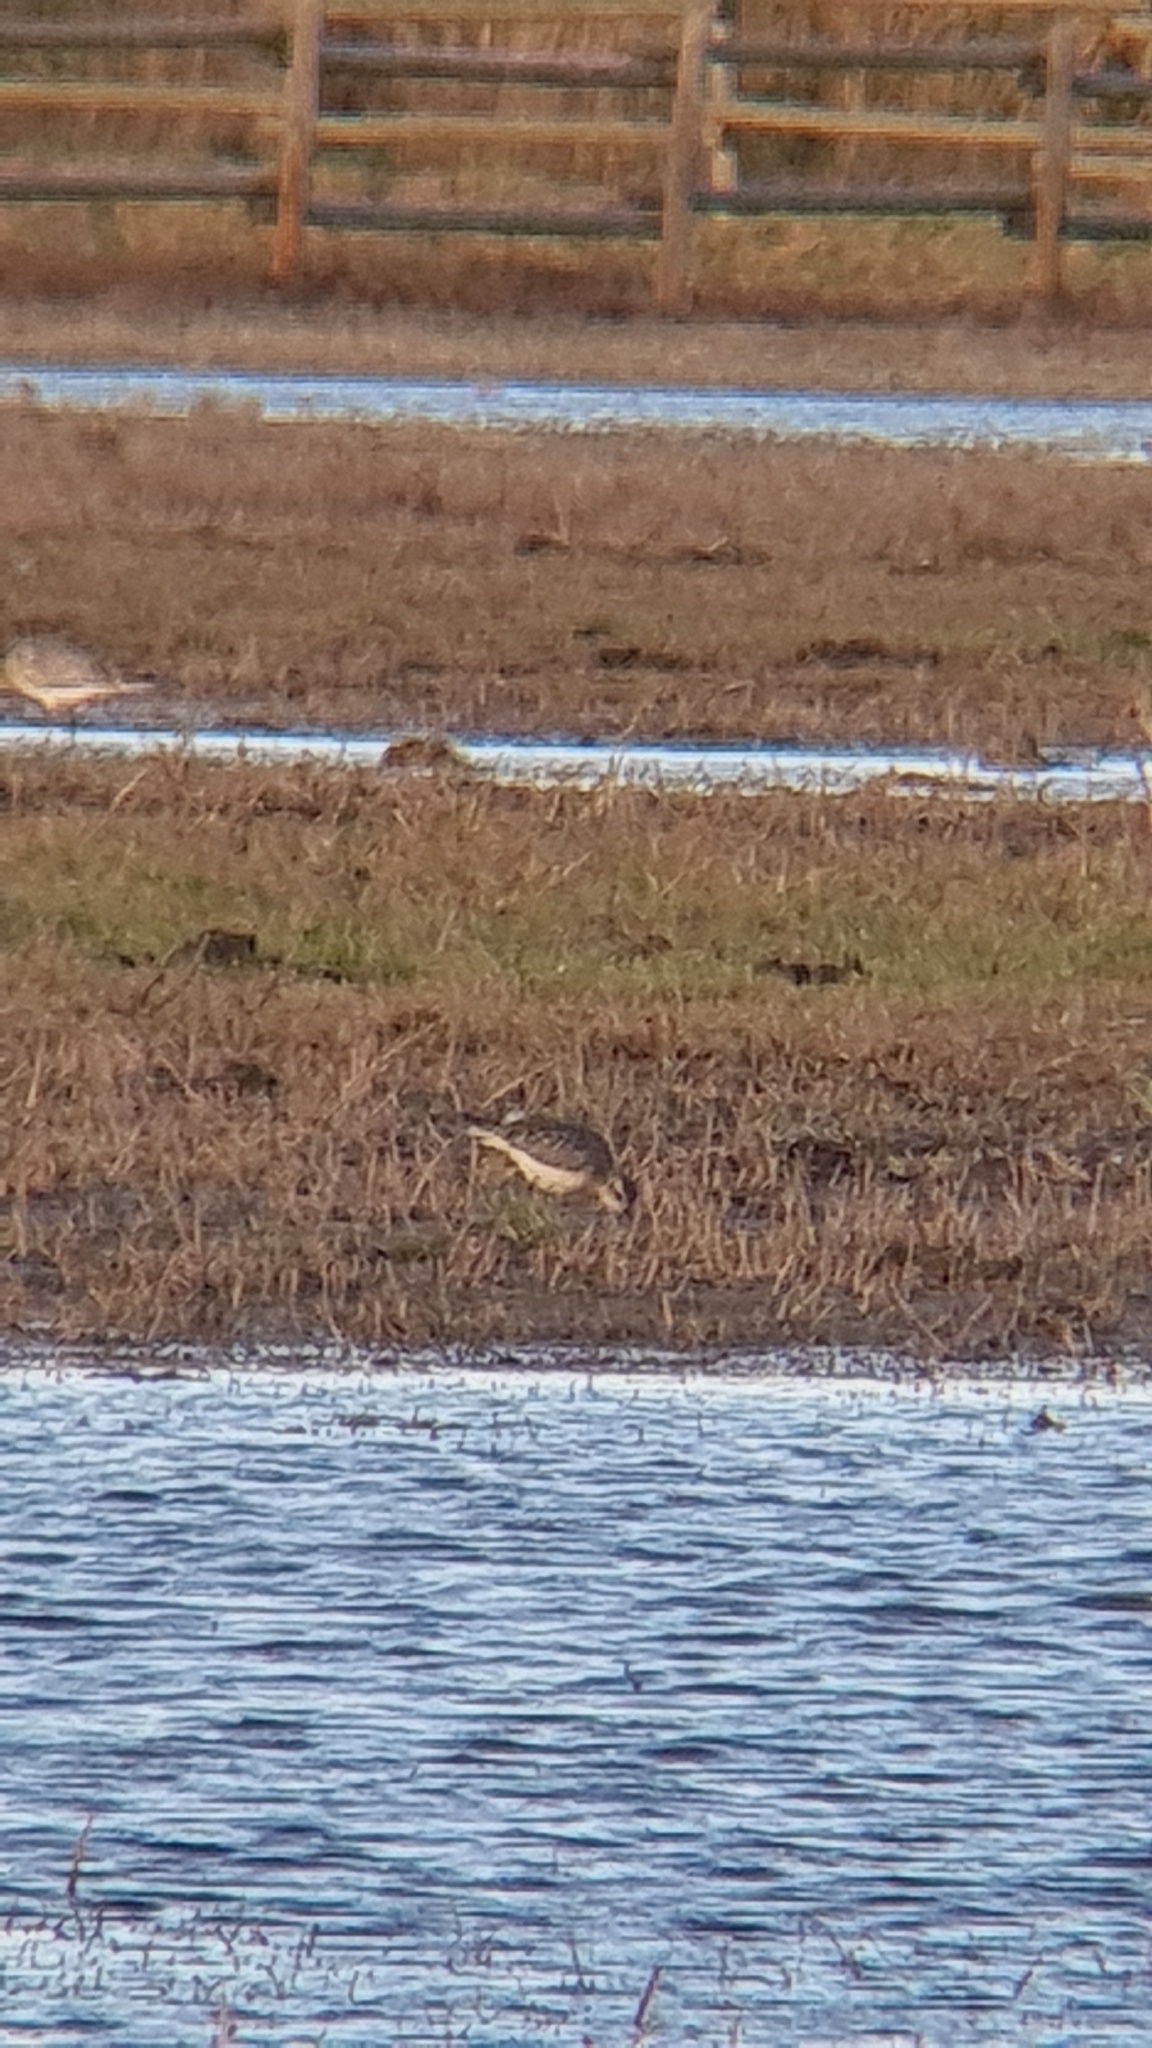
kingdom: Animalia
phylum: Chordata
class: Aves
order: Charadriiformes
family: Charadriidae
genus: Pluvialis
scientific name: Pluvialis apricaria
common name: European golden plover
